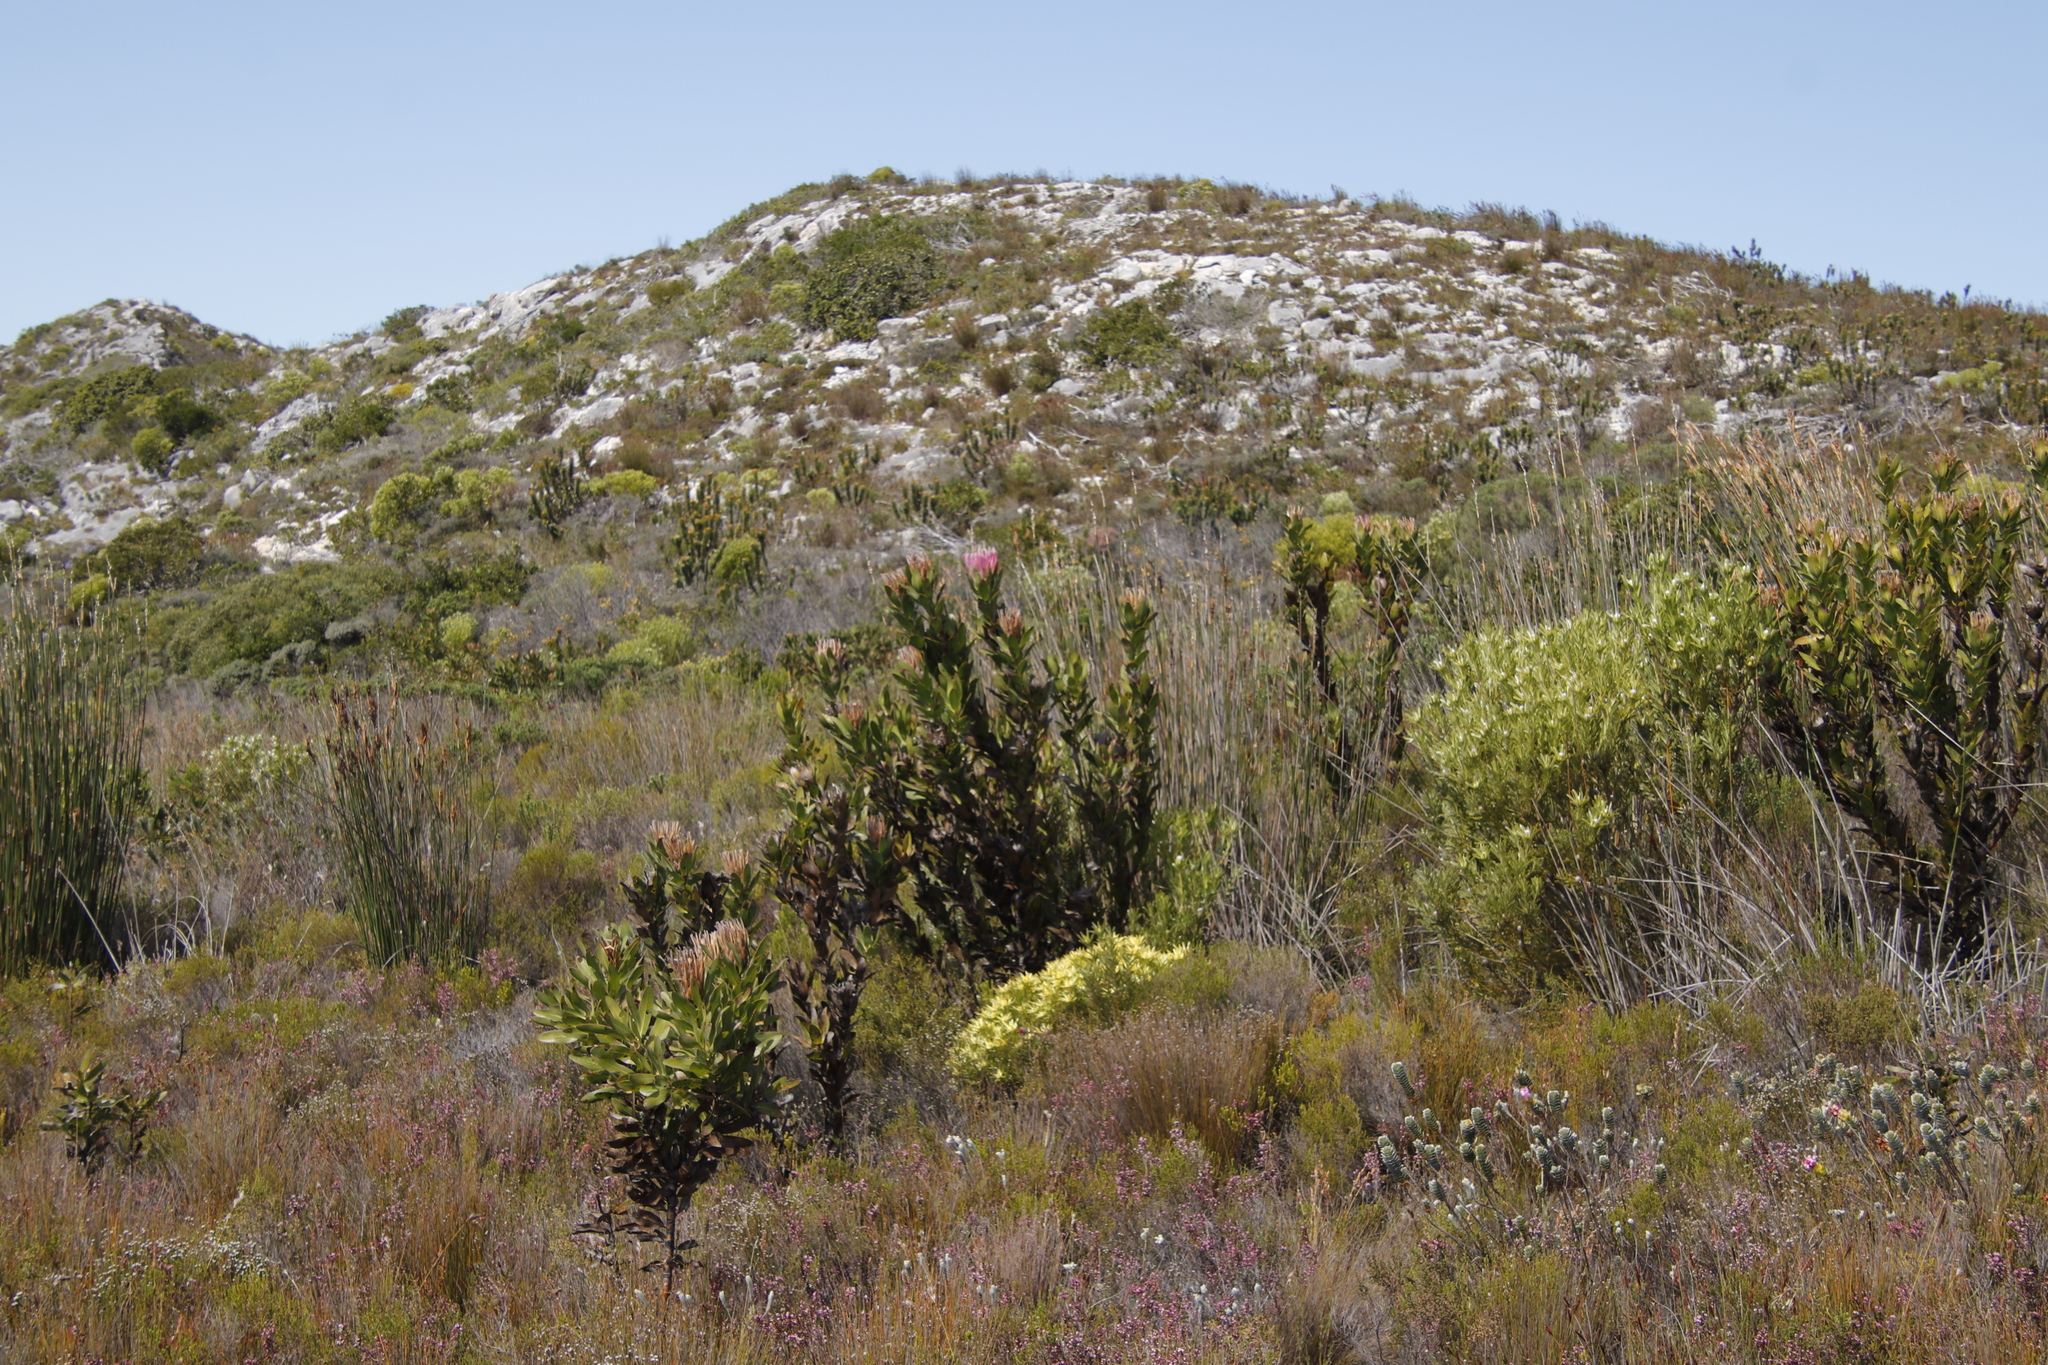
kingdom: Plantae
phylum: Tracheophyta
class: Magnoliopsida
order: Proteales
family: Proteaceae
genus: Protea
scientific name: Protea compacta
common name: Bot river protea
